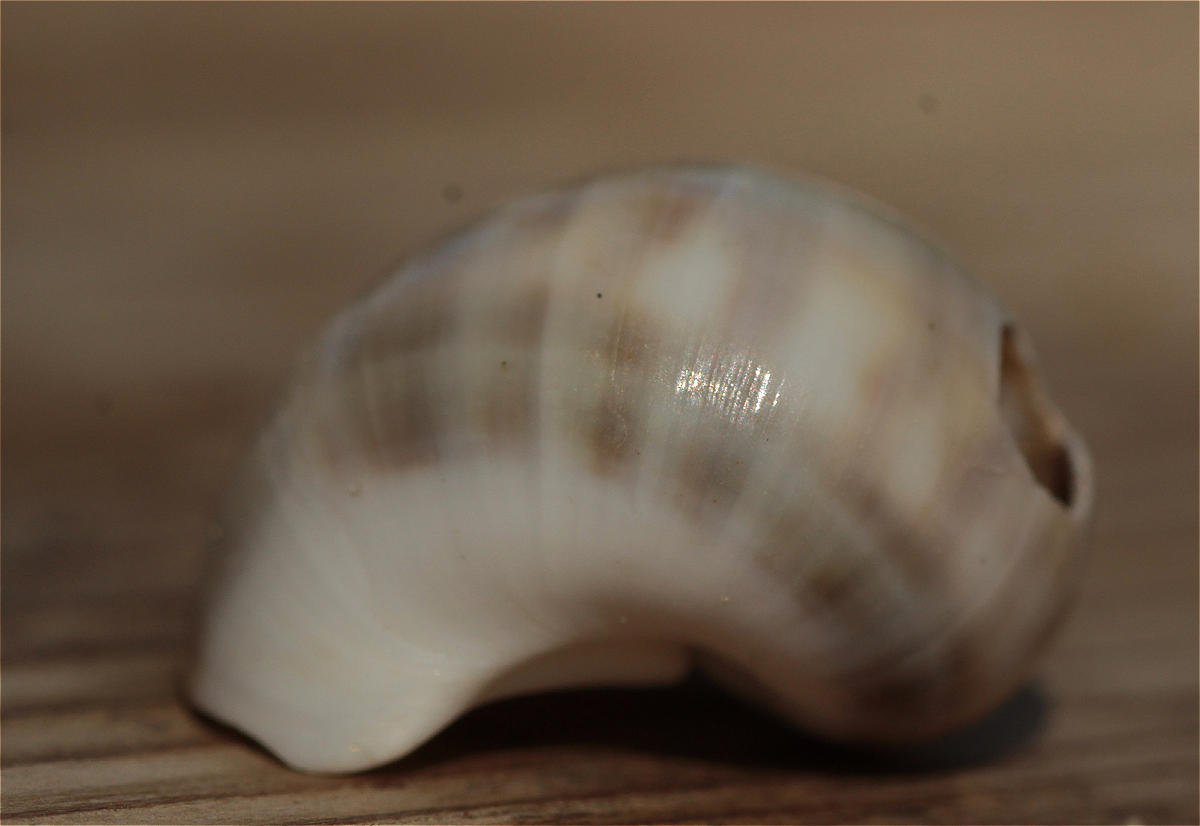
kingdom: Animalia
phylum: Mollusca
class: Gastropoda
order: Littorinimorpha
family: Naticidae
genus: Notocochlis
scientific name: Notocochlis gualteriana
